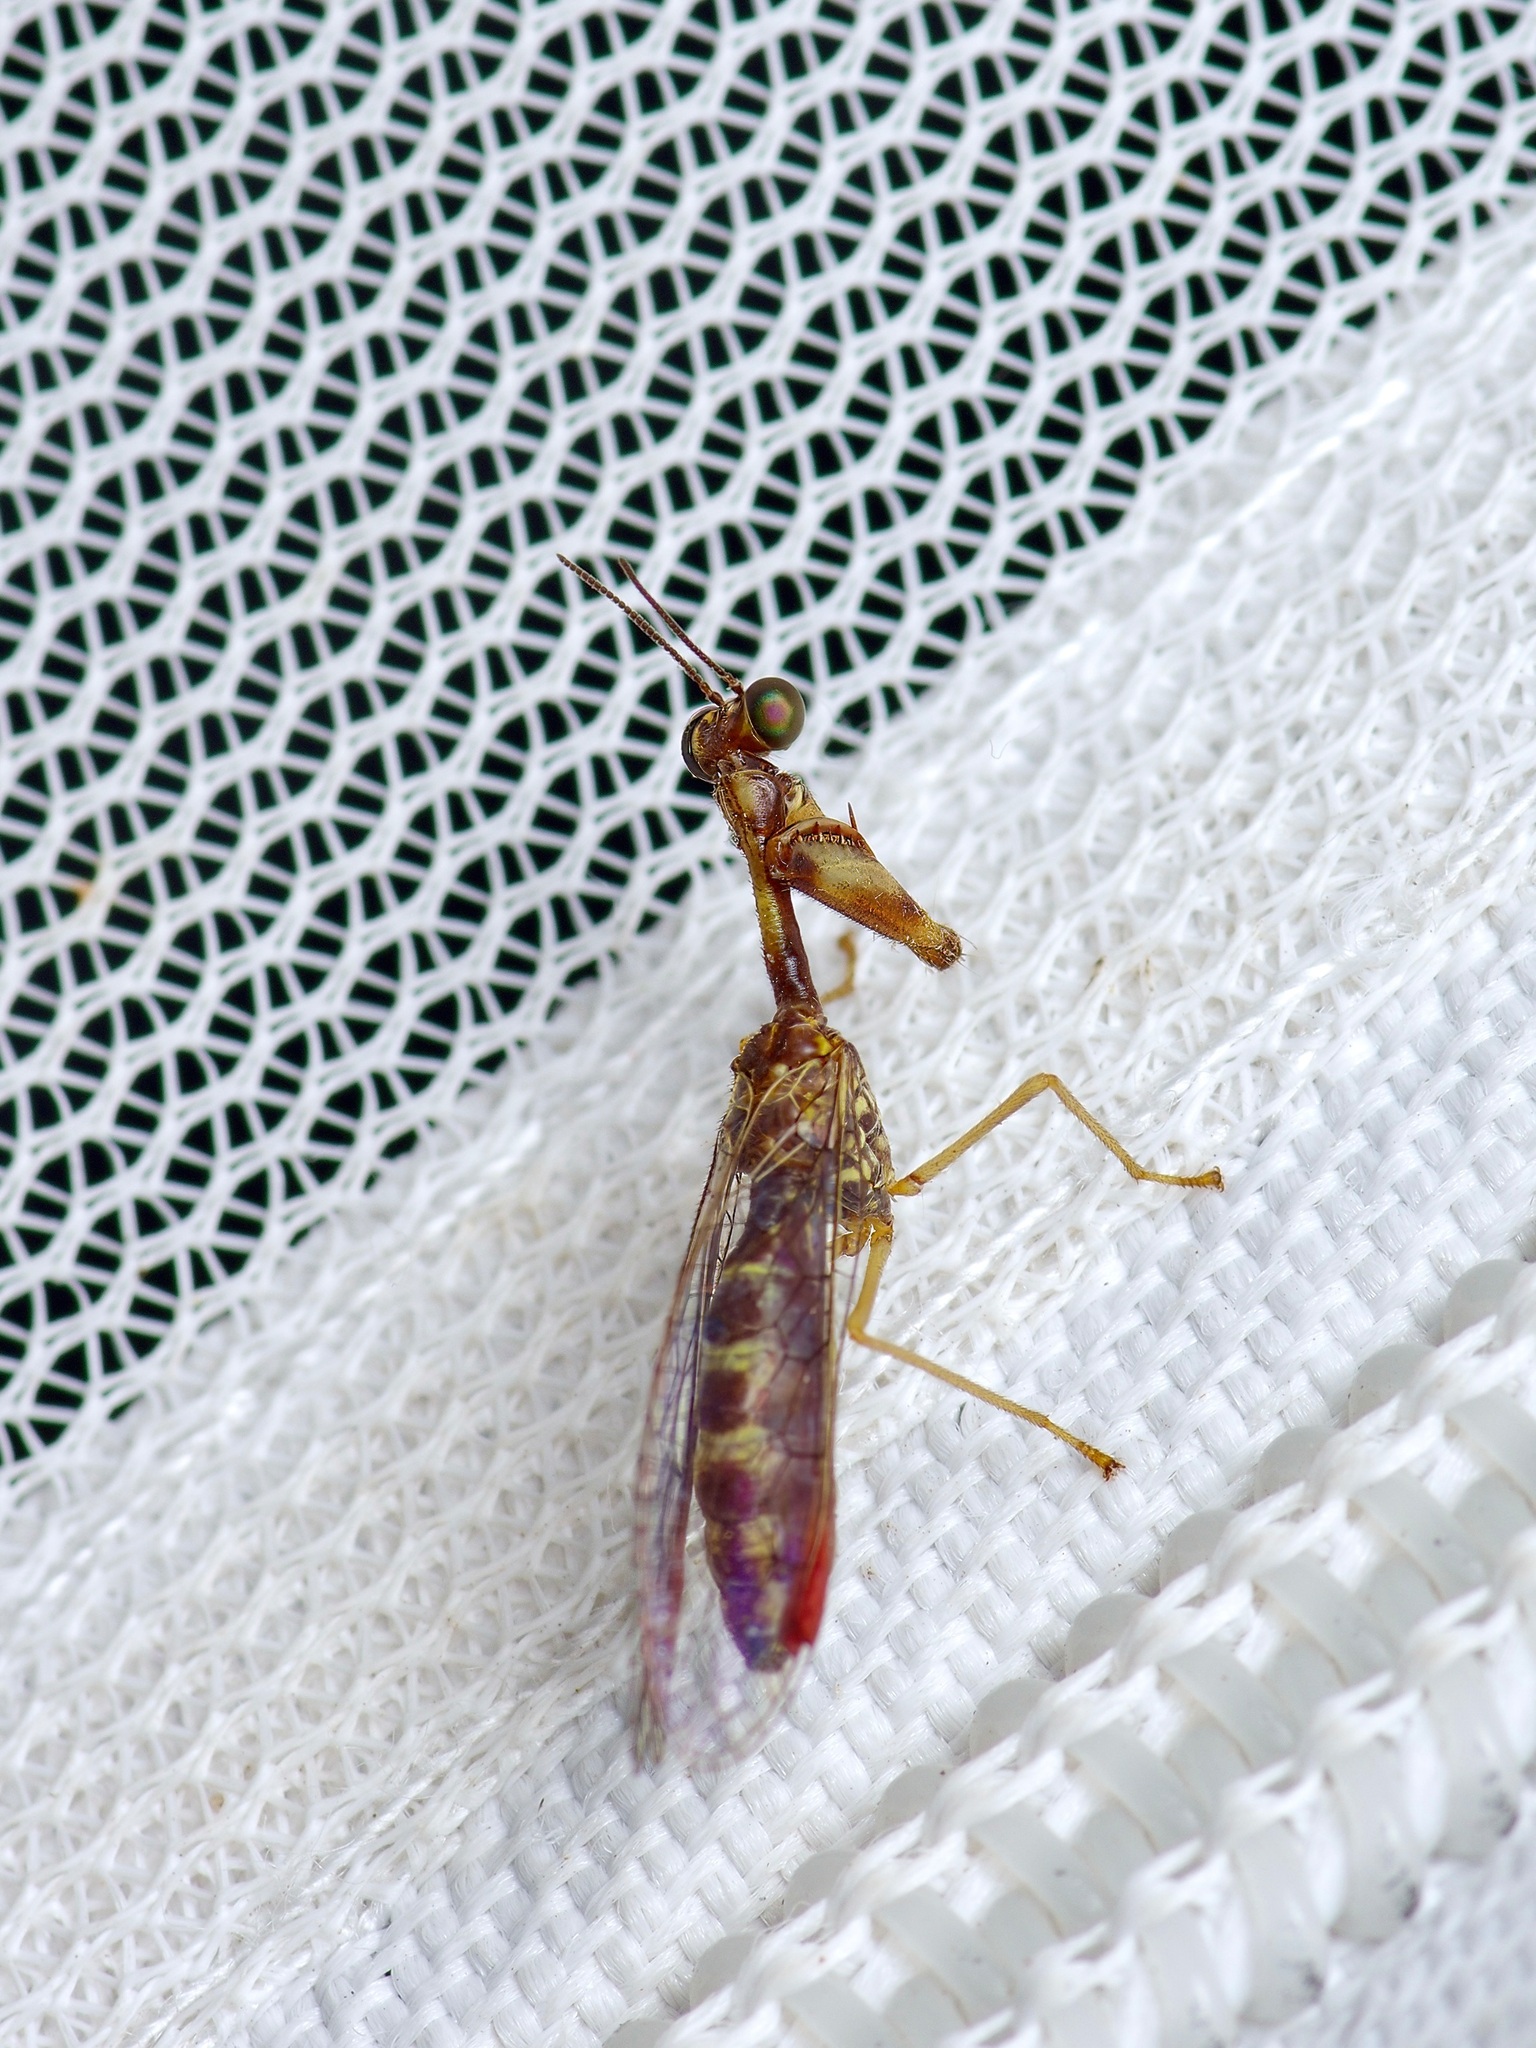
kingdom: Animalia
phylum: Arthropoda
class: Insecta
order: Neuroptera
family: Mantispidae
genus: Leptomantispa
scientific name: Leptomantispa pulchella
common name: Stevens's mantidfly
